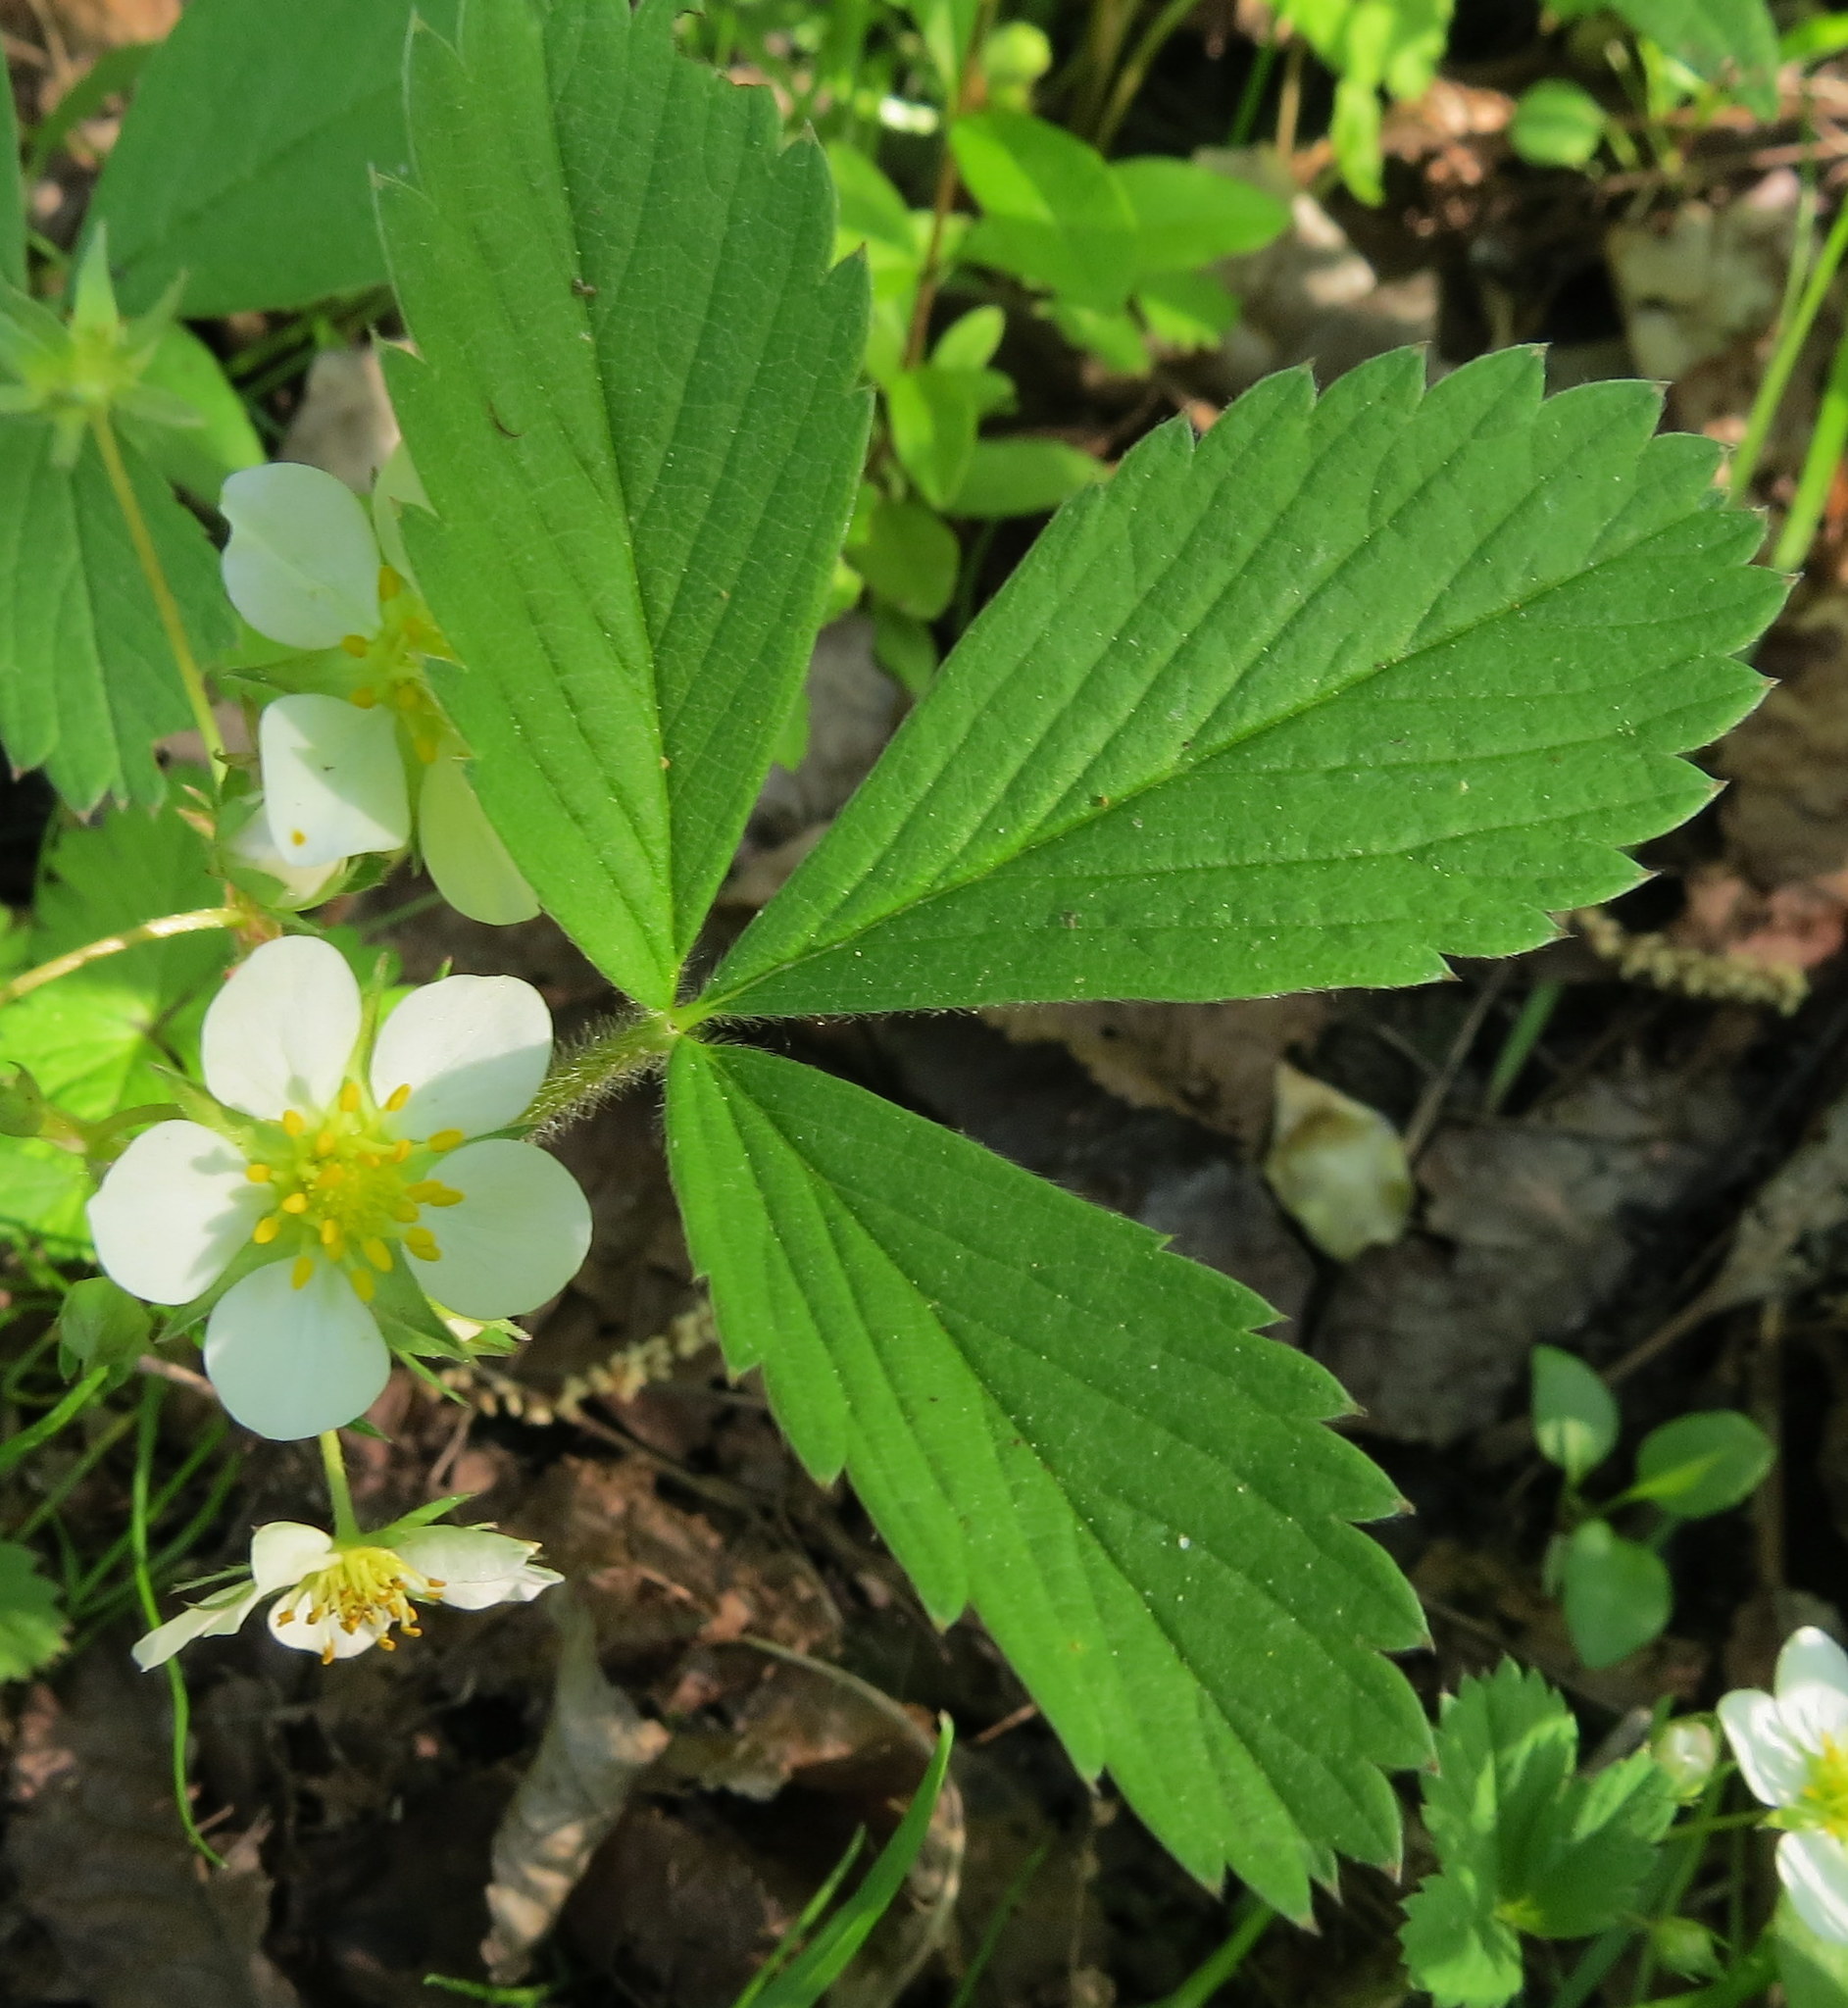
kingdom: Plantae
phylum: Tracheophyta
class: Magnoliopsida
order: Rosales
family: Rosaceae
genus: Fragaria
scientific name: Fragaria virginiana
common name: Thickleaved wild strawberry
